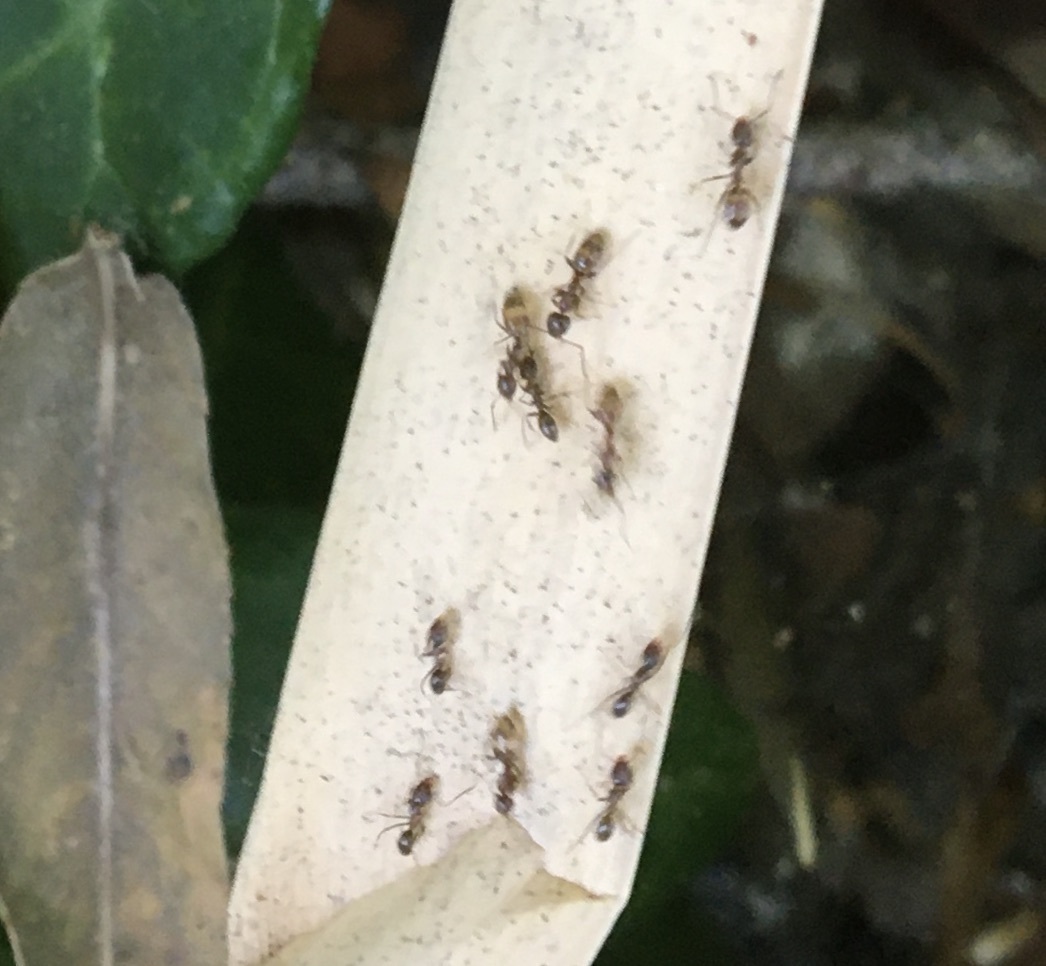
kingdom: Animalia
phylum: Arthropoda
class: Insecta
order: Hymenoptera
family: Formicidae
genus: Linepithema
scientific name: Linepithema humile
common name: Argentine ant
